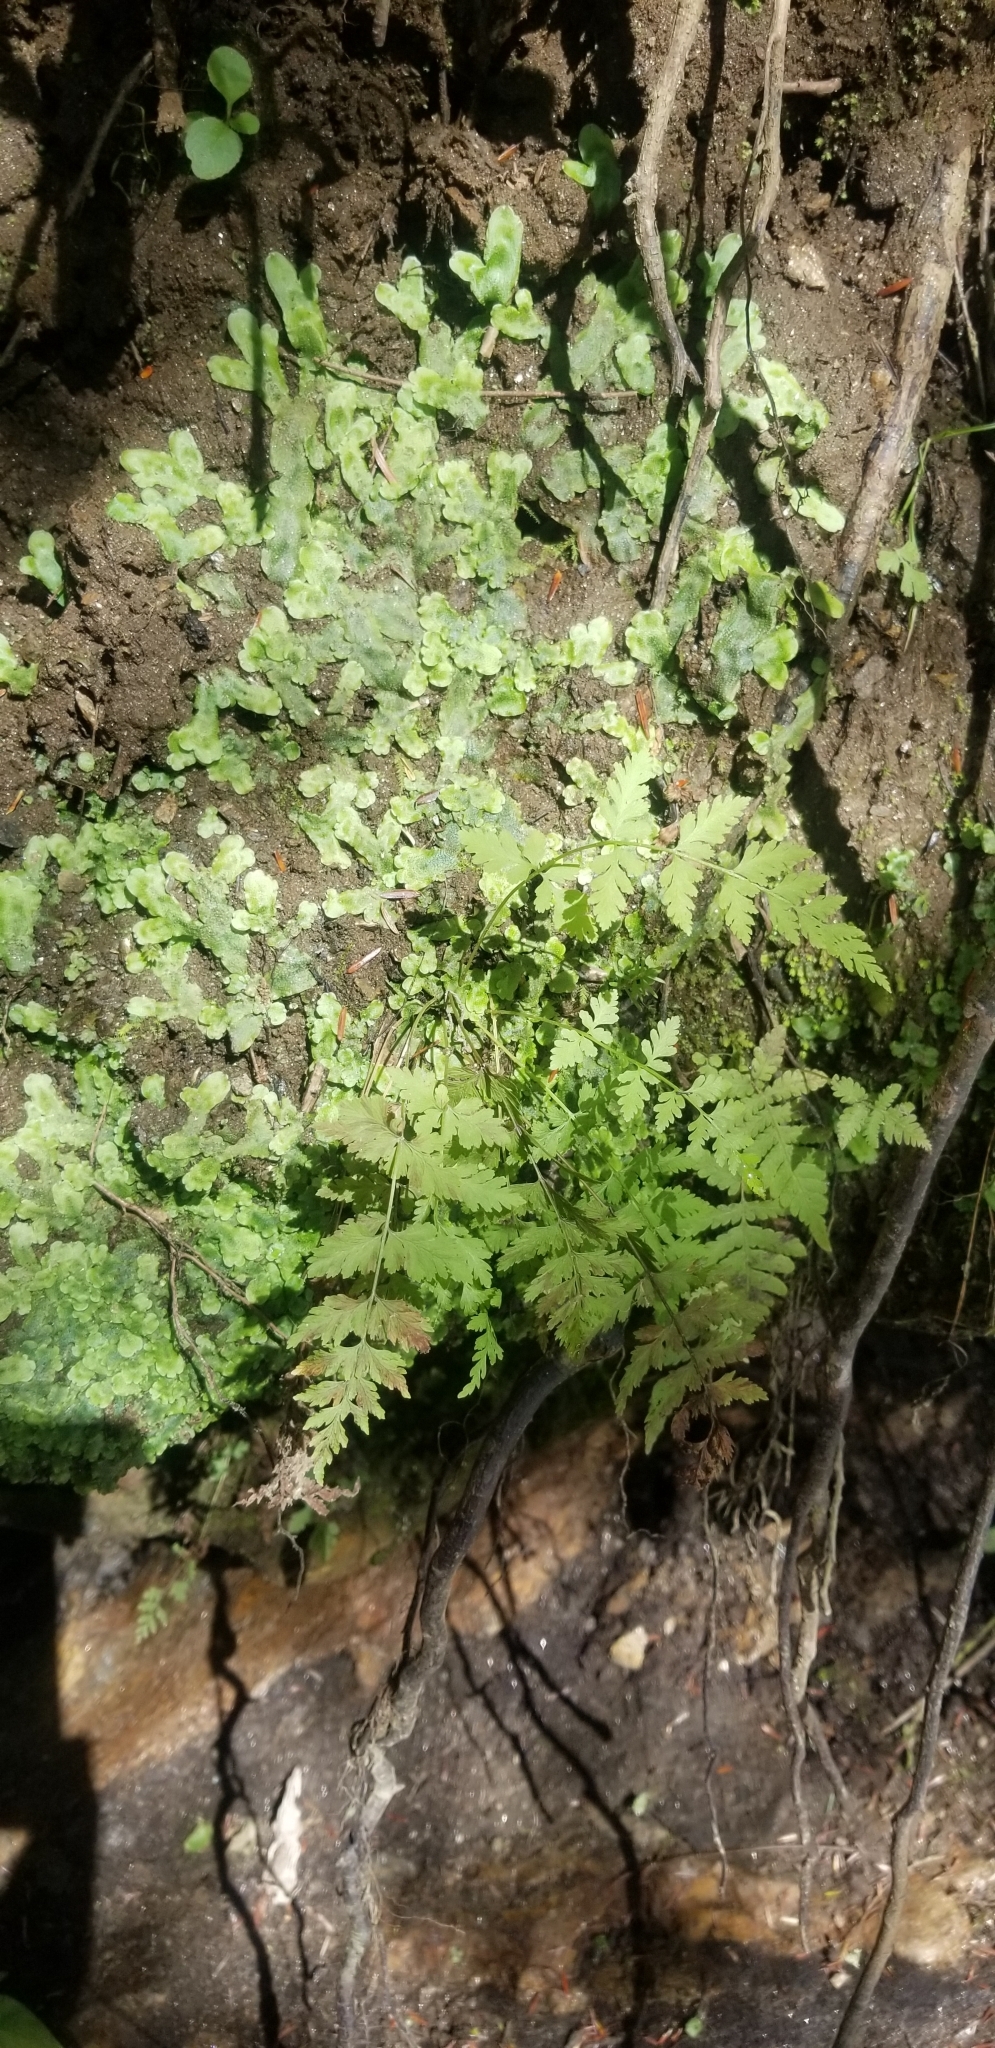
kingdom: Plantae
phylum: Tracheophyta
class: Polypodiopsida
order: Polypodiales
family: Cystopteridaceae
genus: Cystopteris
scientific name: Cystopteris bulbifera
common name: Bulblet bladder fern
